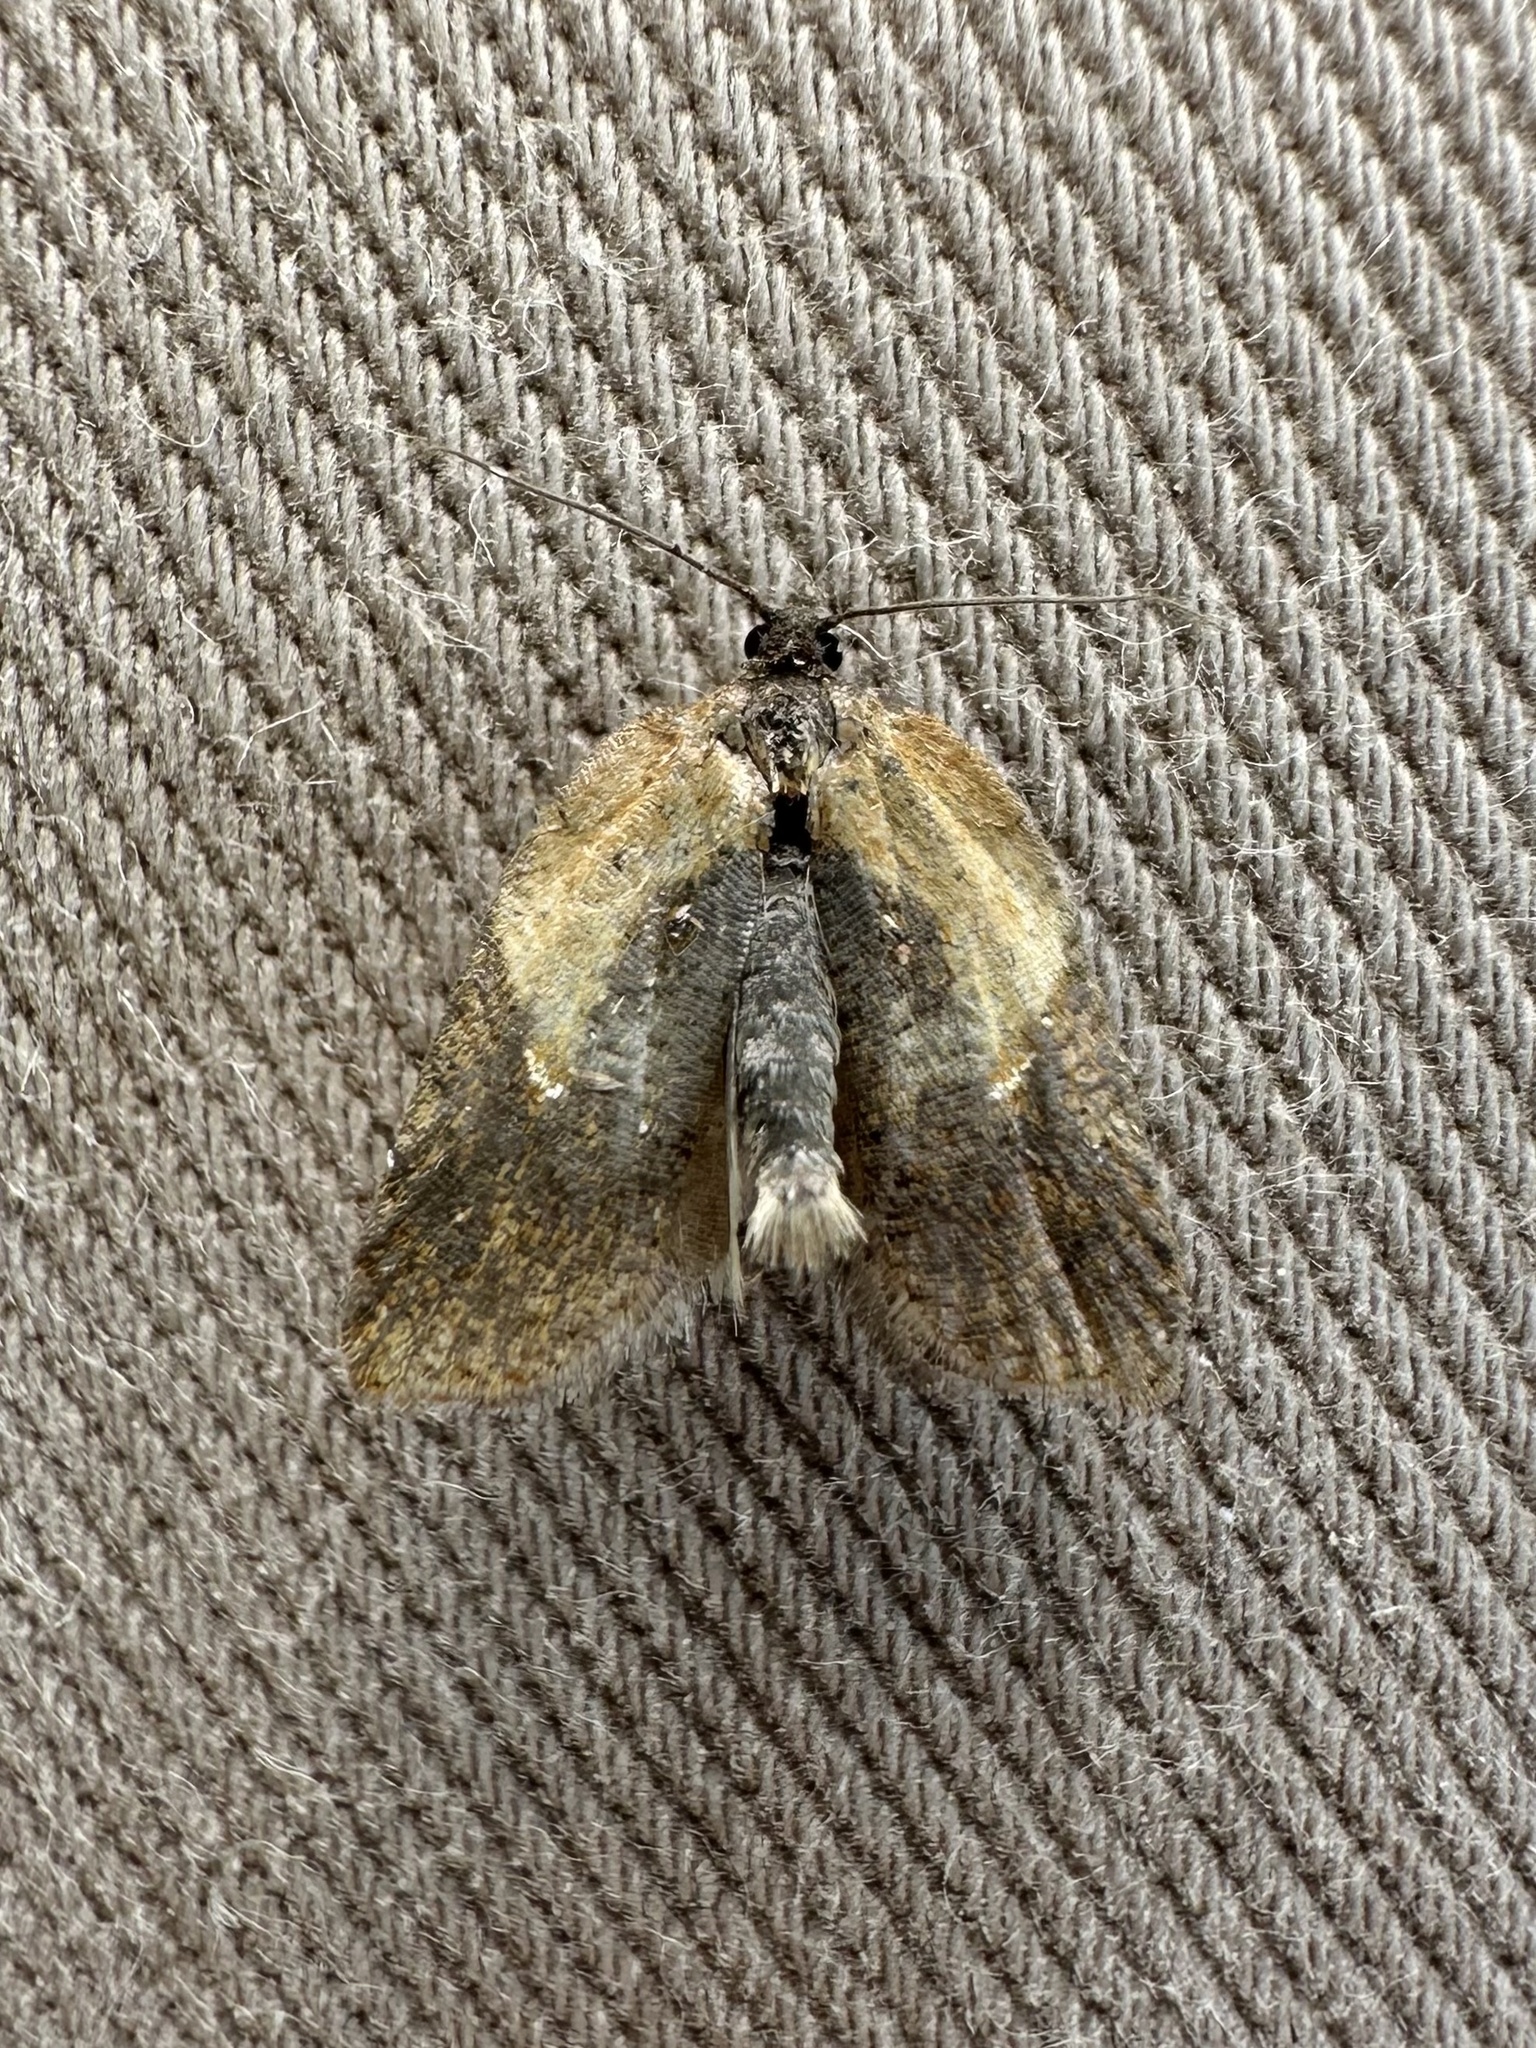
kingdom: Animalia
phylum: Arthropoda
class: Insecta
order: Lepidoptera
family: Tortricidae
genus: Acleris
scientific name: Acleris fragariana
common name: Strawberry acleris
